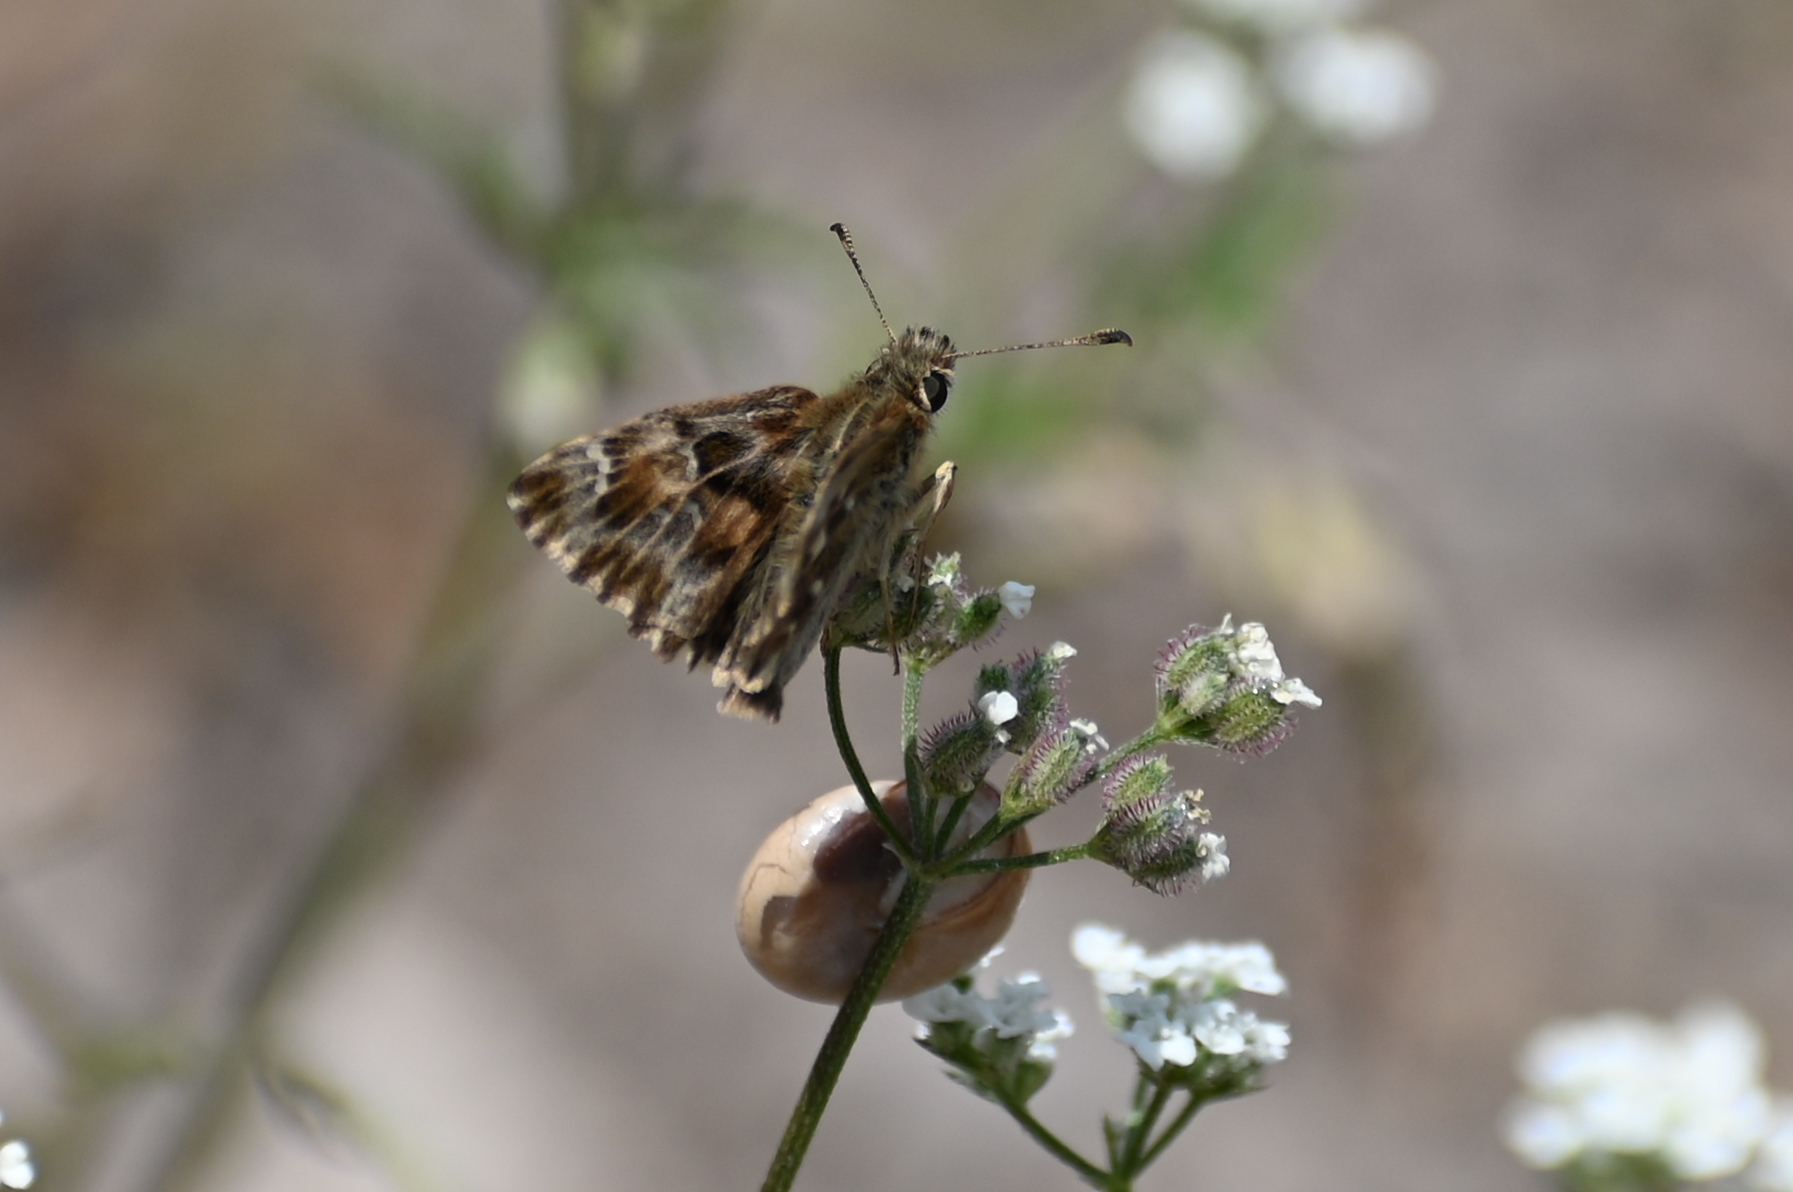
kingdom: Animalia
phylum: Arthropoda
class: Insecta
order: Lepidoptera
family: Hesperiidae
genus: Carcharodus
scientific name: Carcharodus alceae
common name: Mallow skipper
